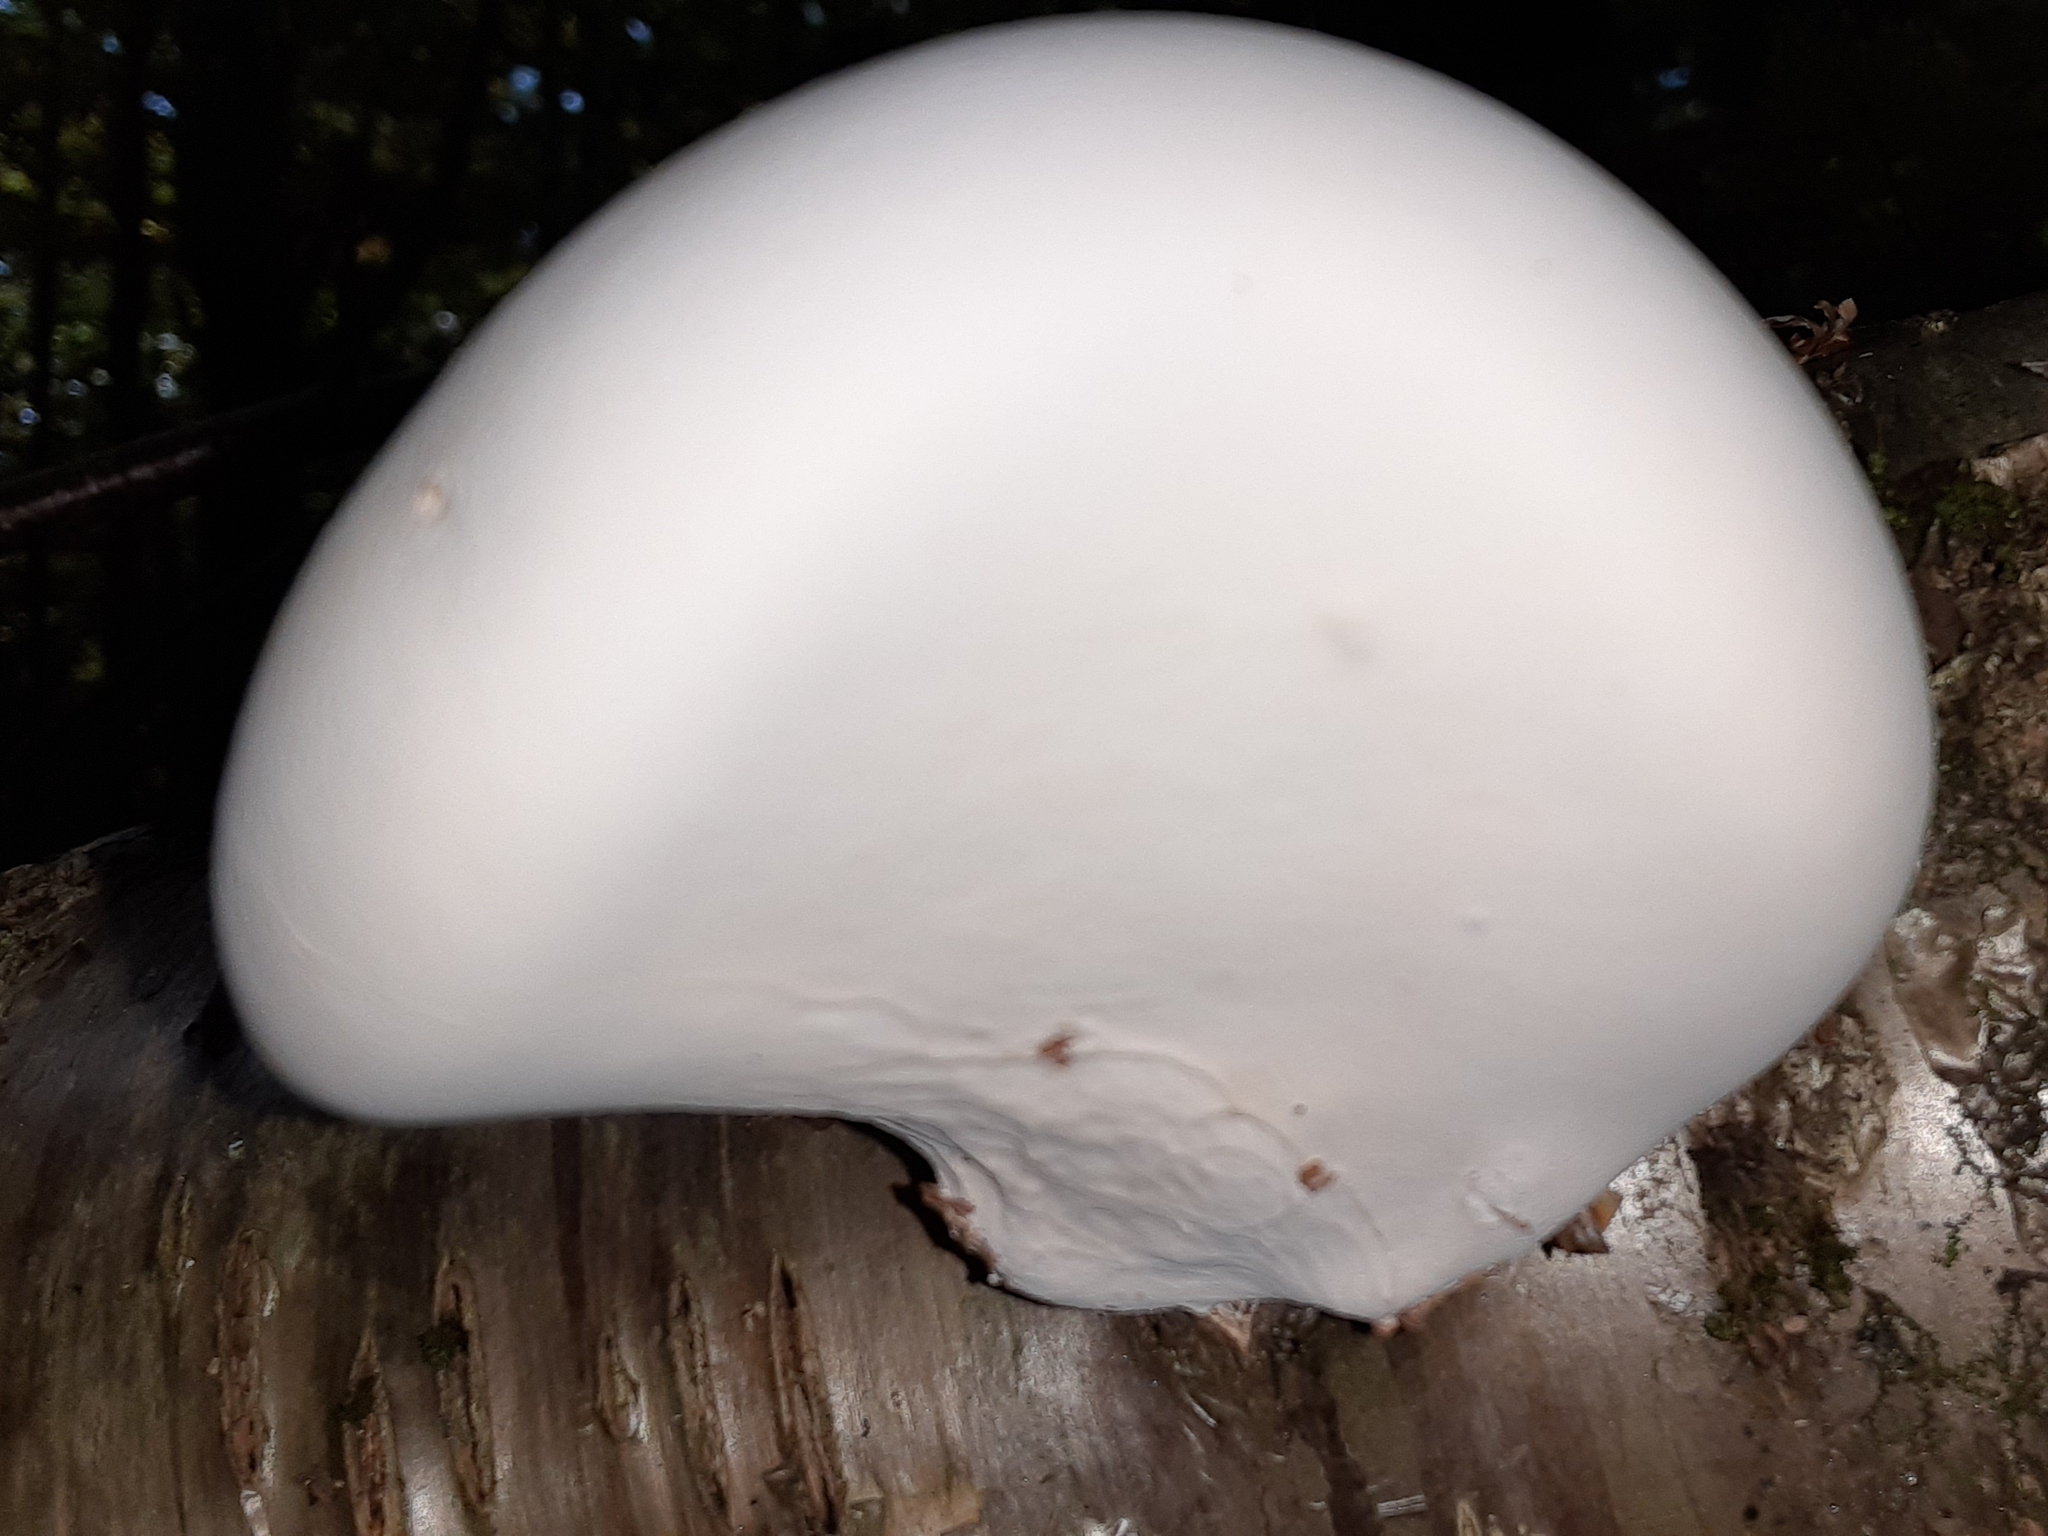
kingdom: Fungi
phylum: Basidiomycota
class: Agaricomycetes
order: Polyporales
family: Fomitopsidaceae
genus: Fomitopsis
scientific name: Fomitopsis betulina
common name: Birch polypore
